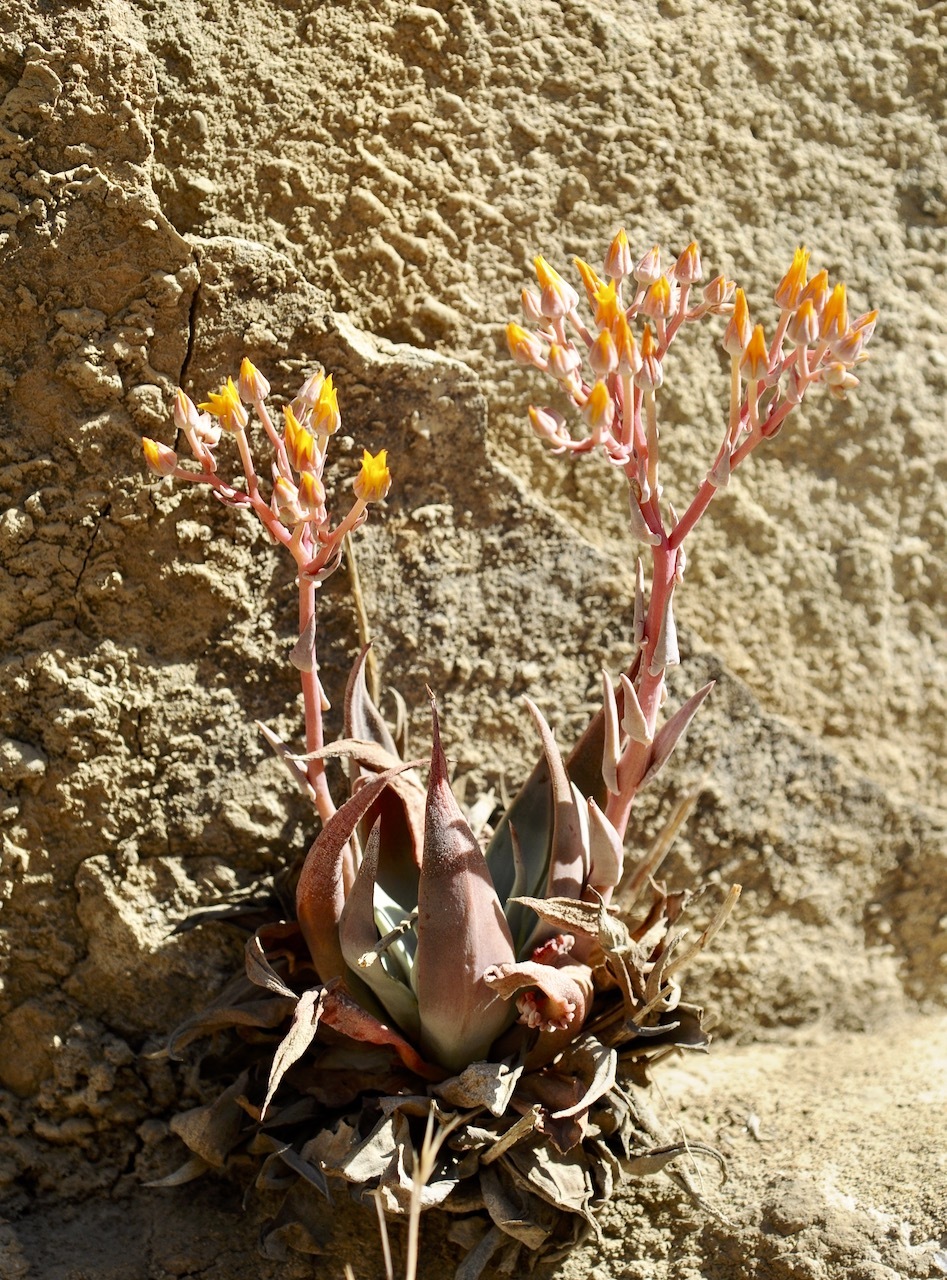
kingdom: Plantae
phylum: Tracheophyta
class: Magnoliopsida
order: Saxifragales
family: Crassulaceae
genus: Dudleya
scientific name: Dudleya cymosa
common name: Canyon dudleya
